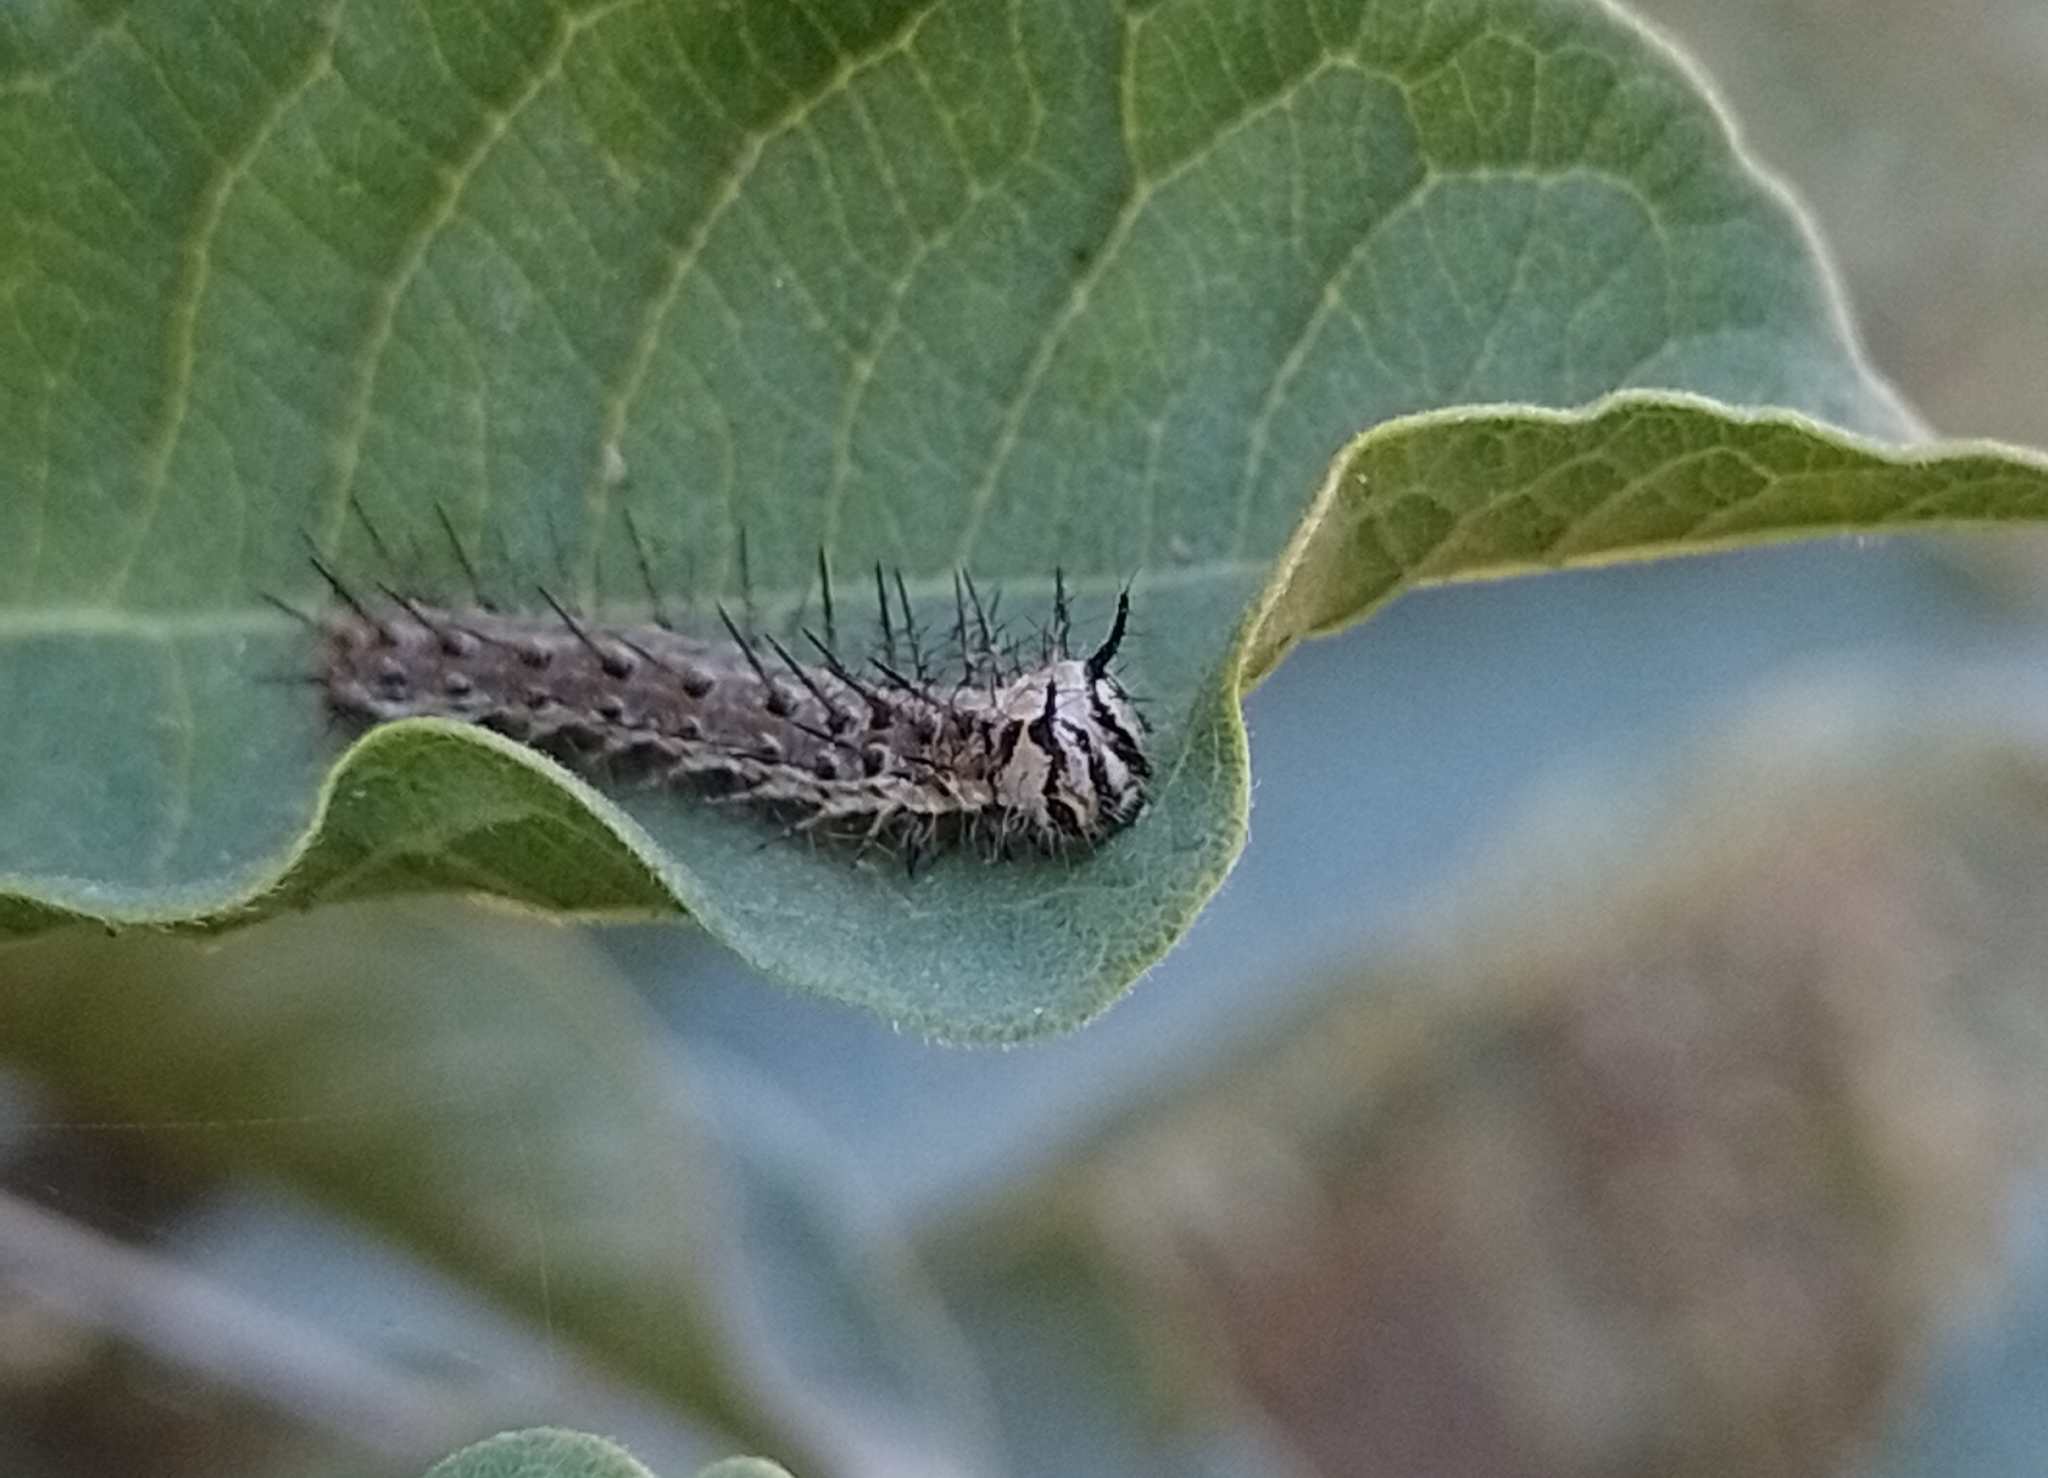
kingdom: Animalia
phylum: Arthropoda
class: Insecta
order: Lepidoptera
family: Nymphalidae
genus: Dione
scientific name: Dione vanillae
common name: Gulf fritillary
